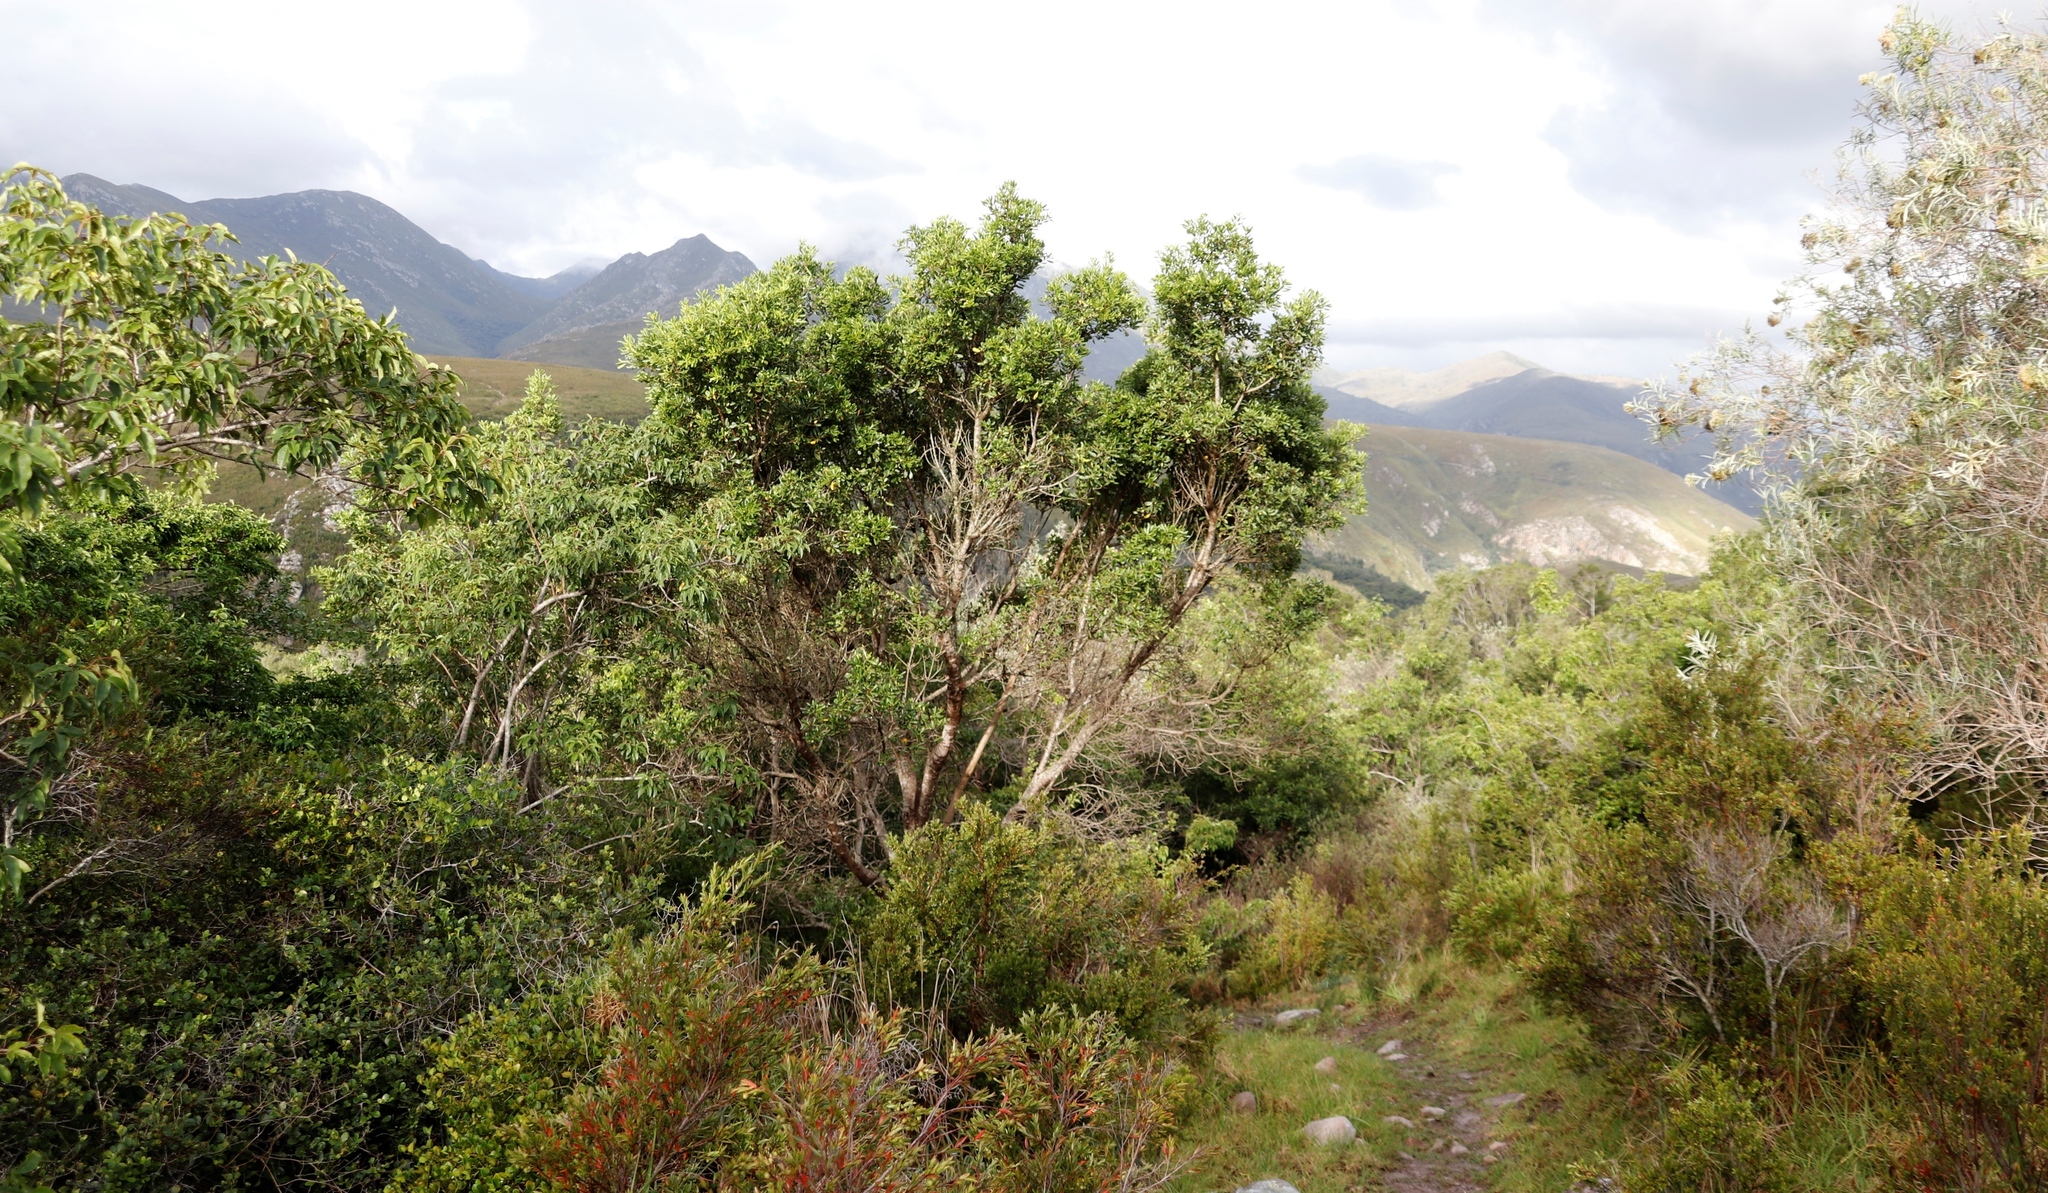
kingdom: Plantae
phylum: Tracheophyta
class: Magnoliopsida
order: Apiales
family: Pittosporaceae
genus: Pittosporum
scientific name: Pittosporum viridiflorum
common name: Cape cheesewood
